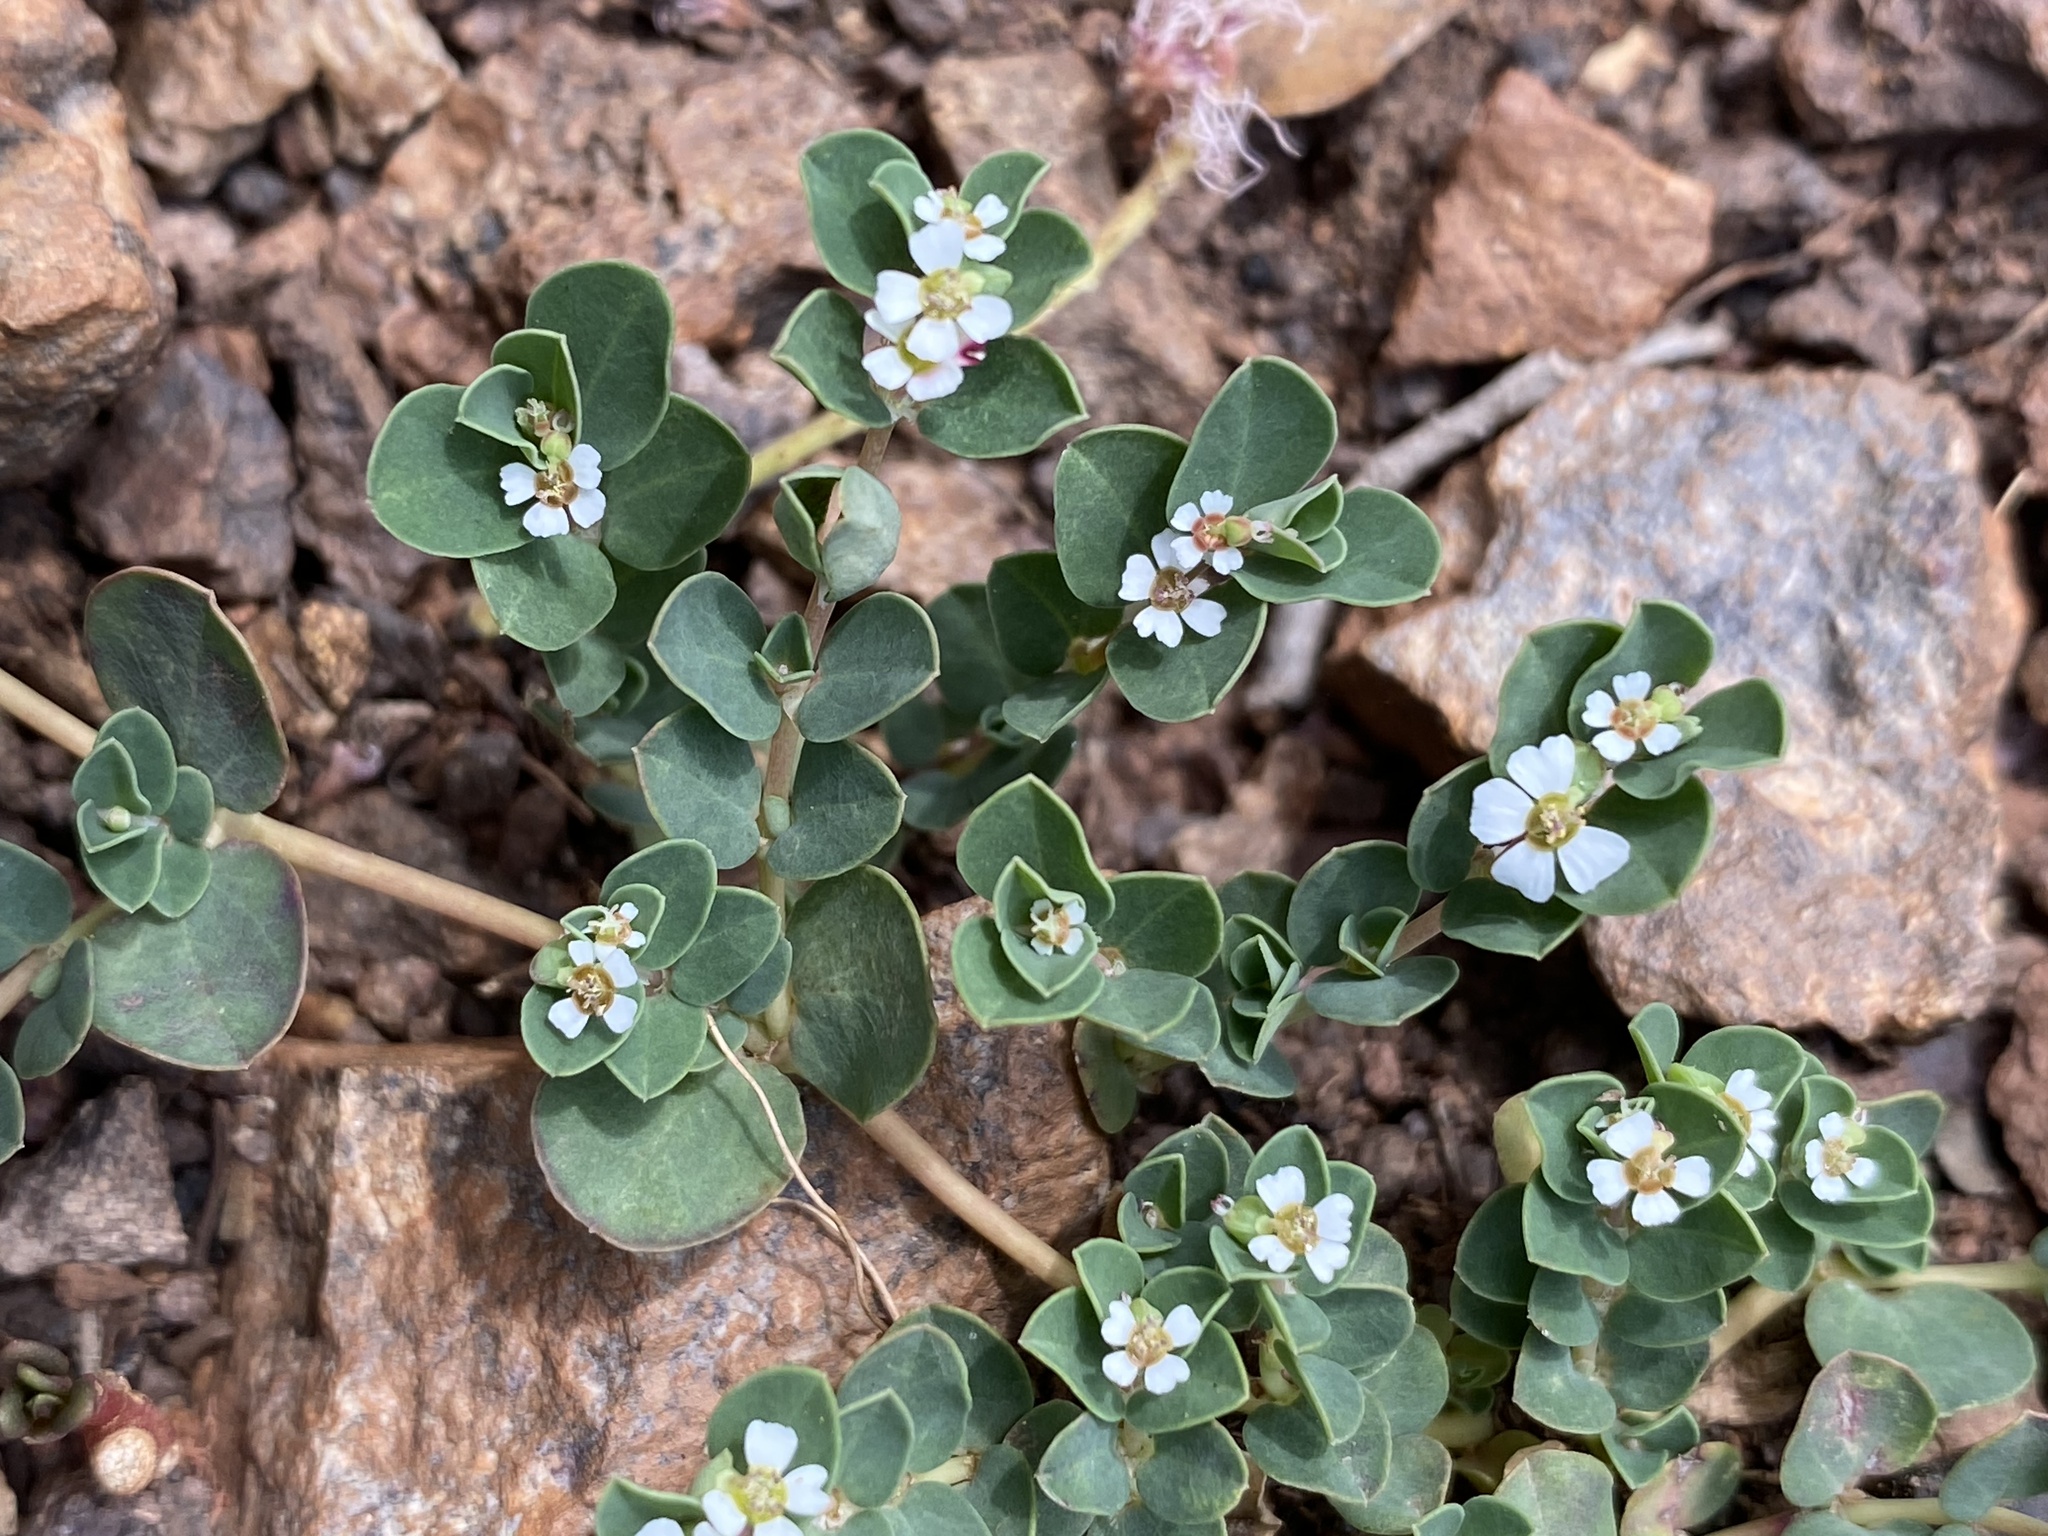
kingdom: Plantae
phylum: Tracheophyta
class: Magnoliopsida
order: Malpighiales
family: Euphorbiaceae
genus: Euphorbia
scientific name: Euphorbia albomarginata
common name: Whitemargin sandmat
